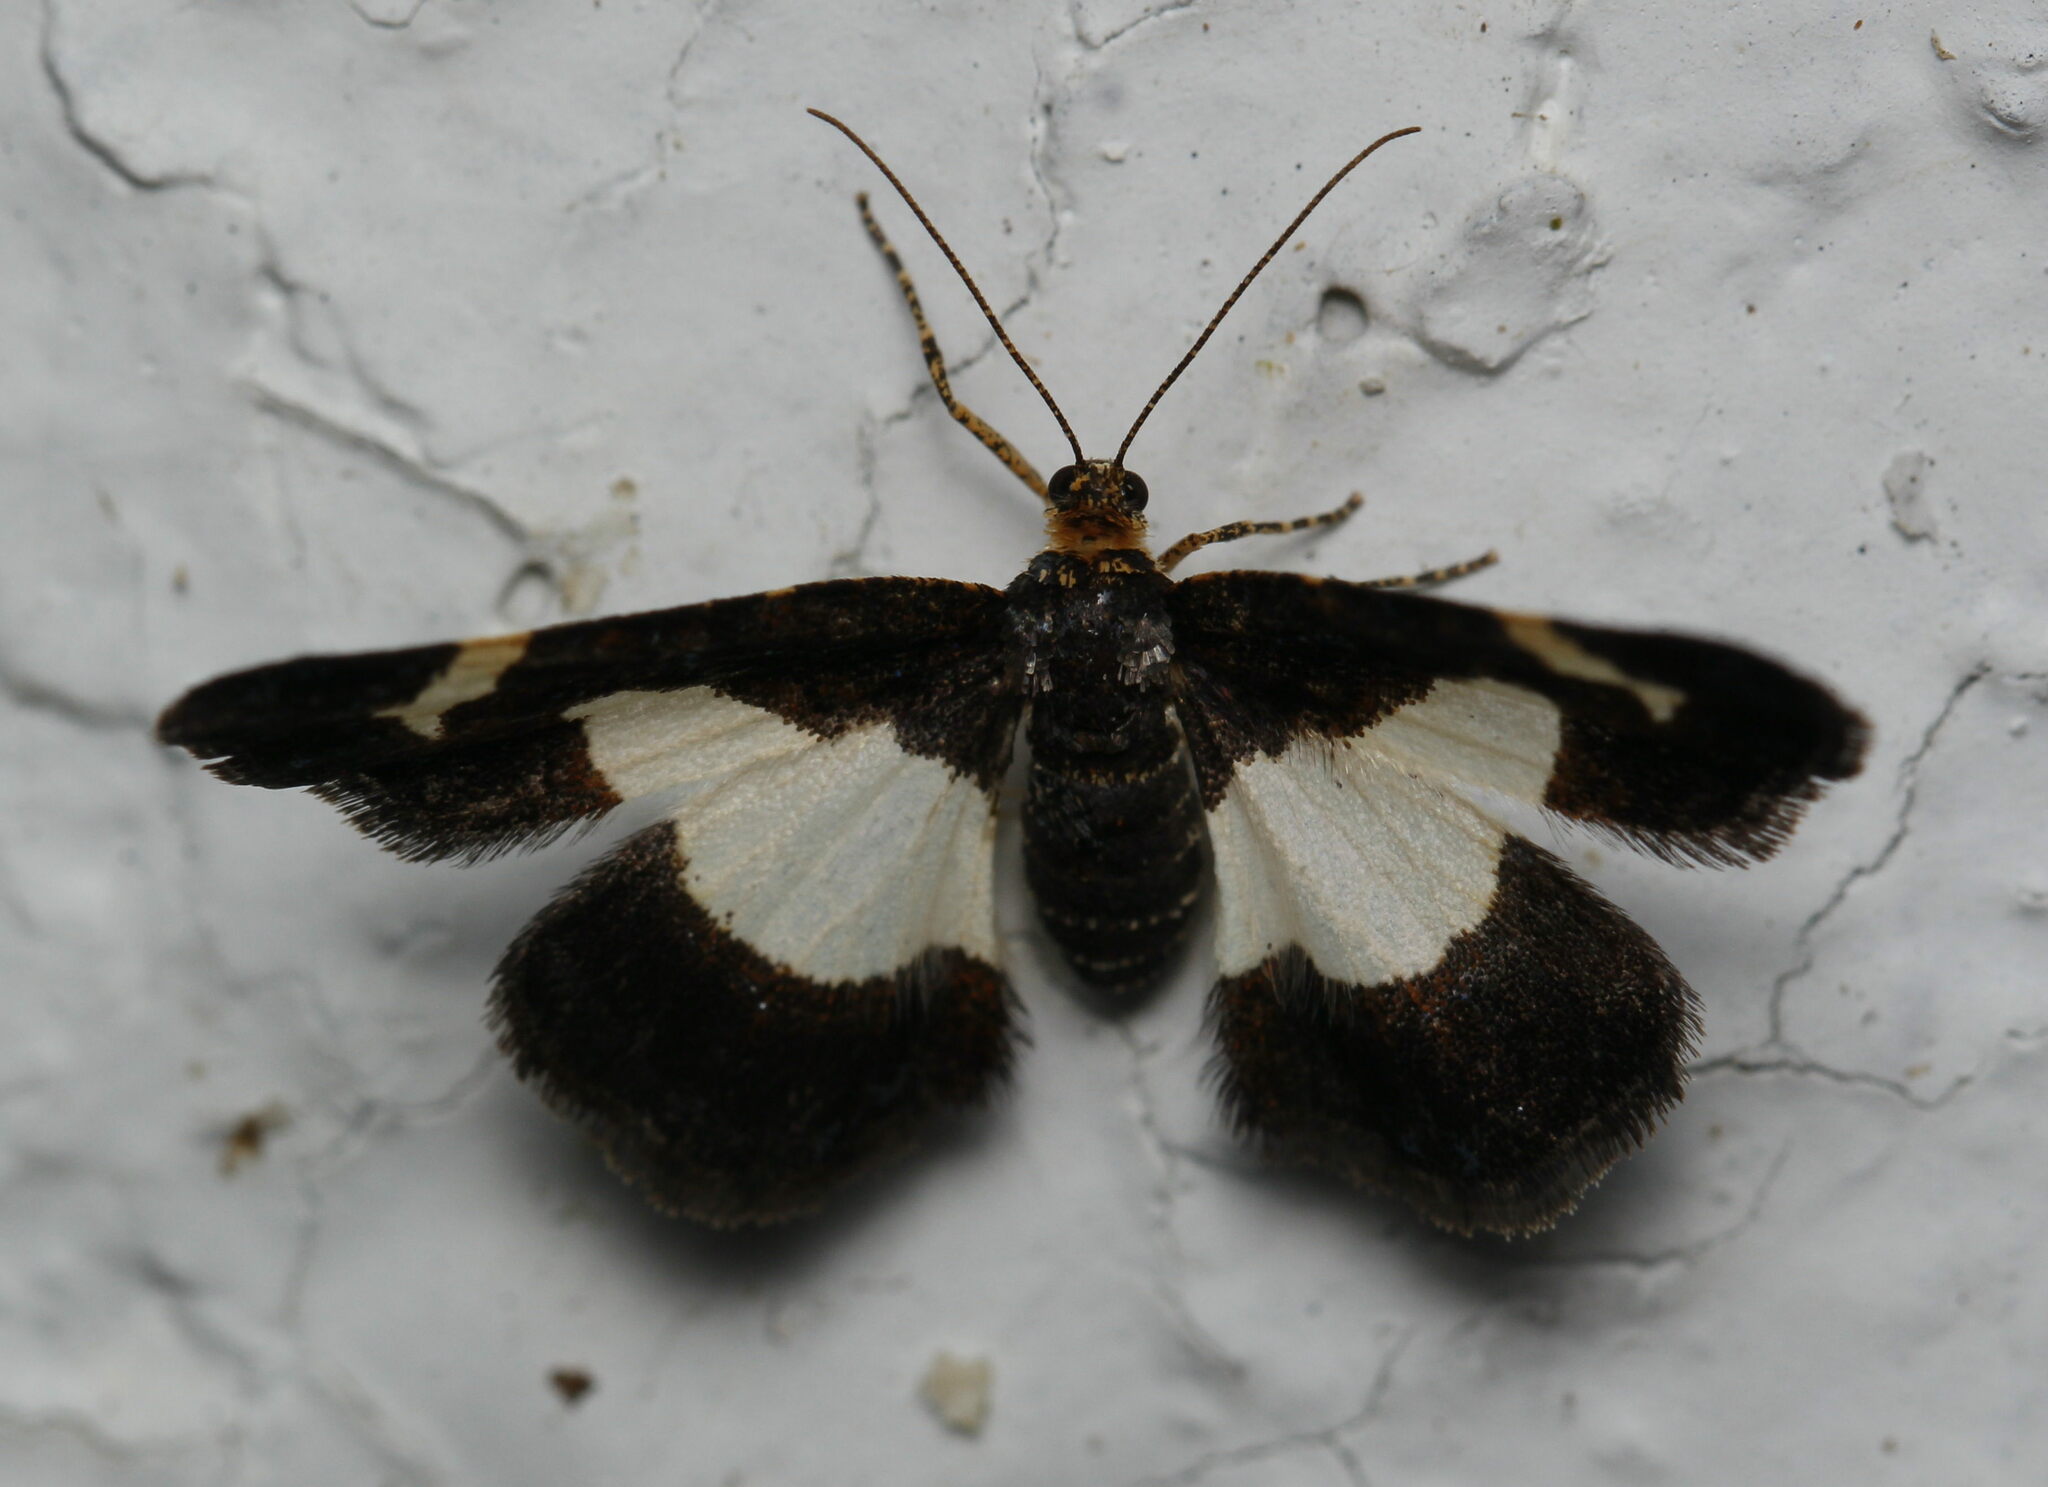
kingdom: Animalia
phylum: Arthropoda
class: Insecta
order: Lepidoptera
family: Geometridae
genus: Heliomata
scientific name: Heliomata cycladata
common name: Common spring moth
